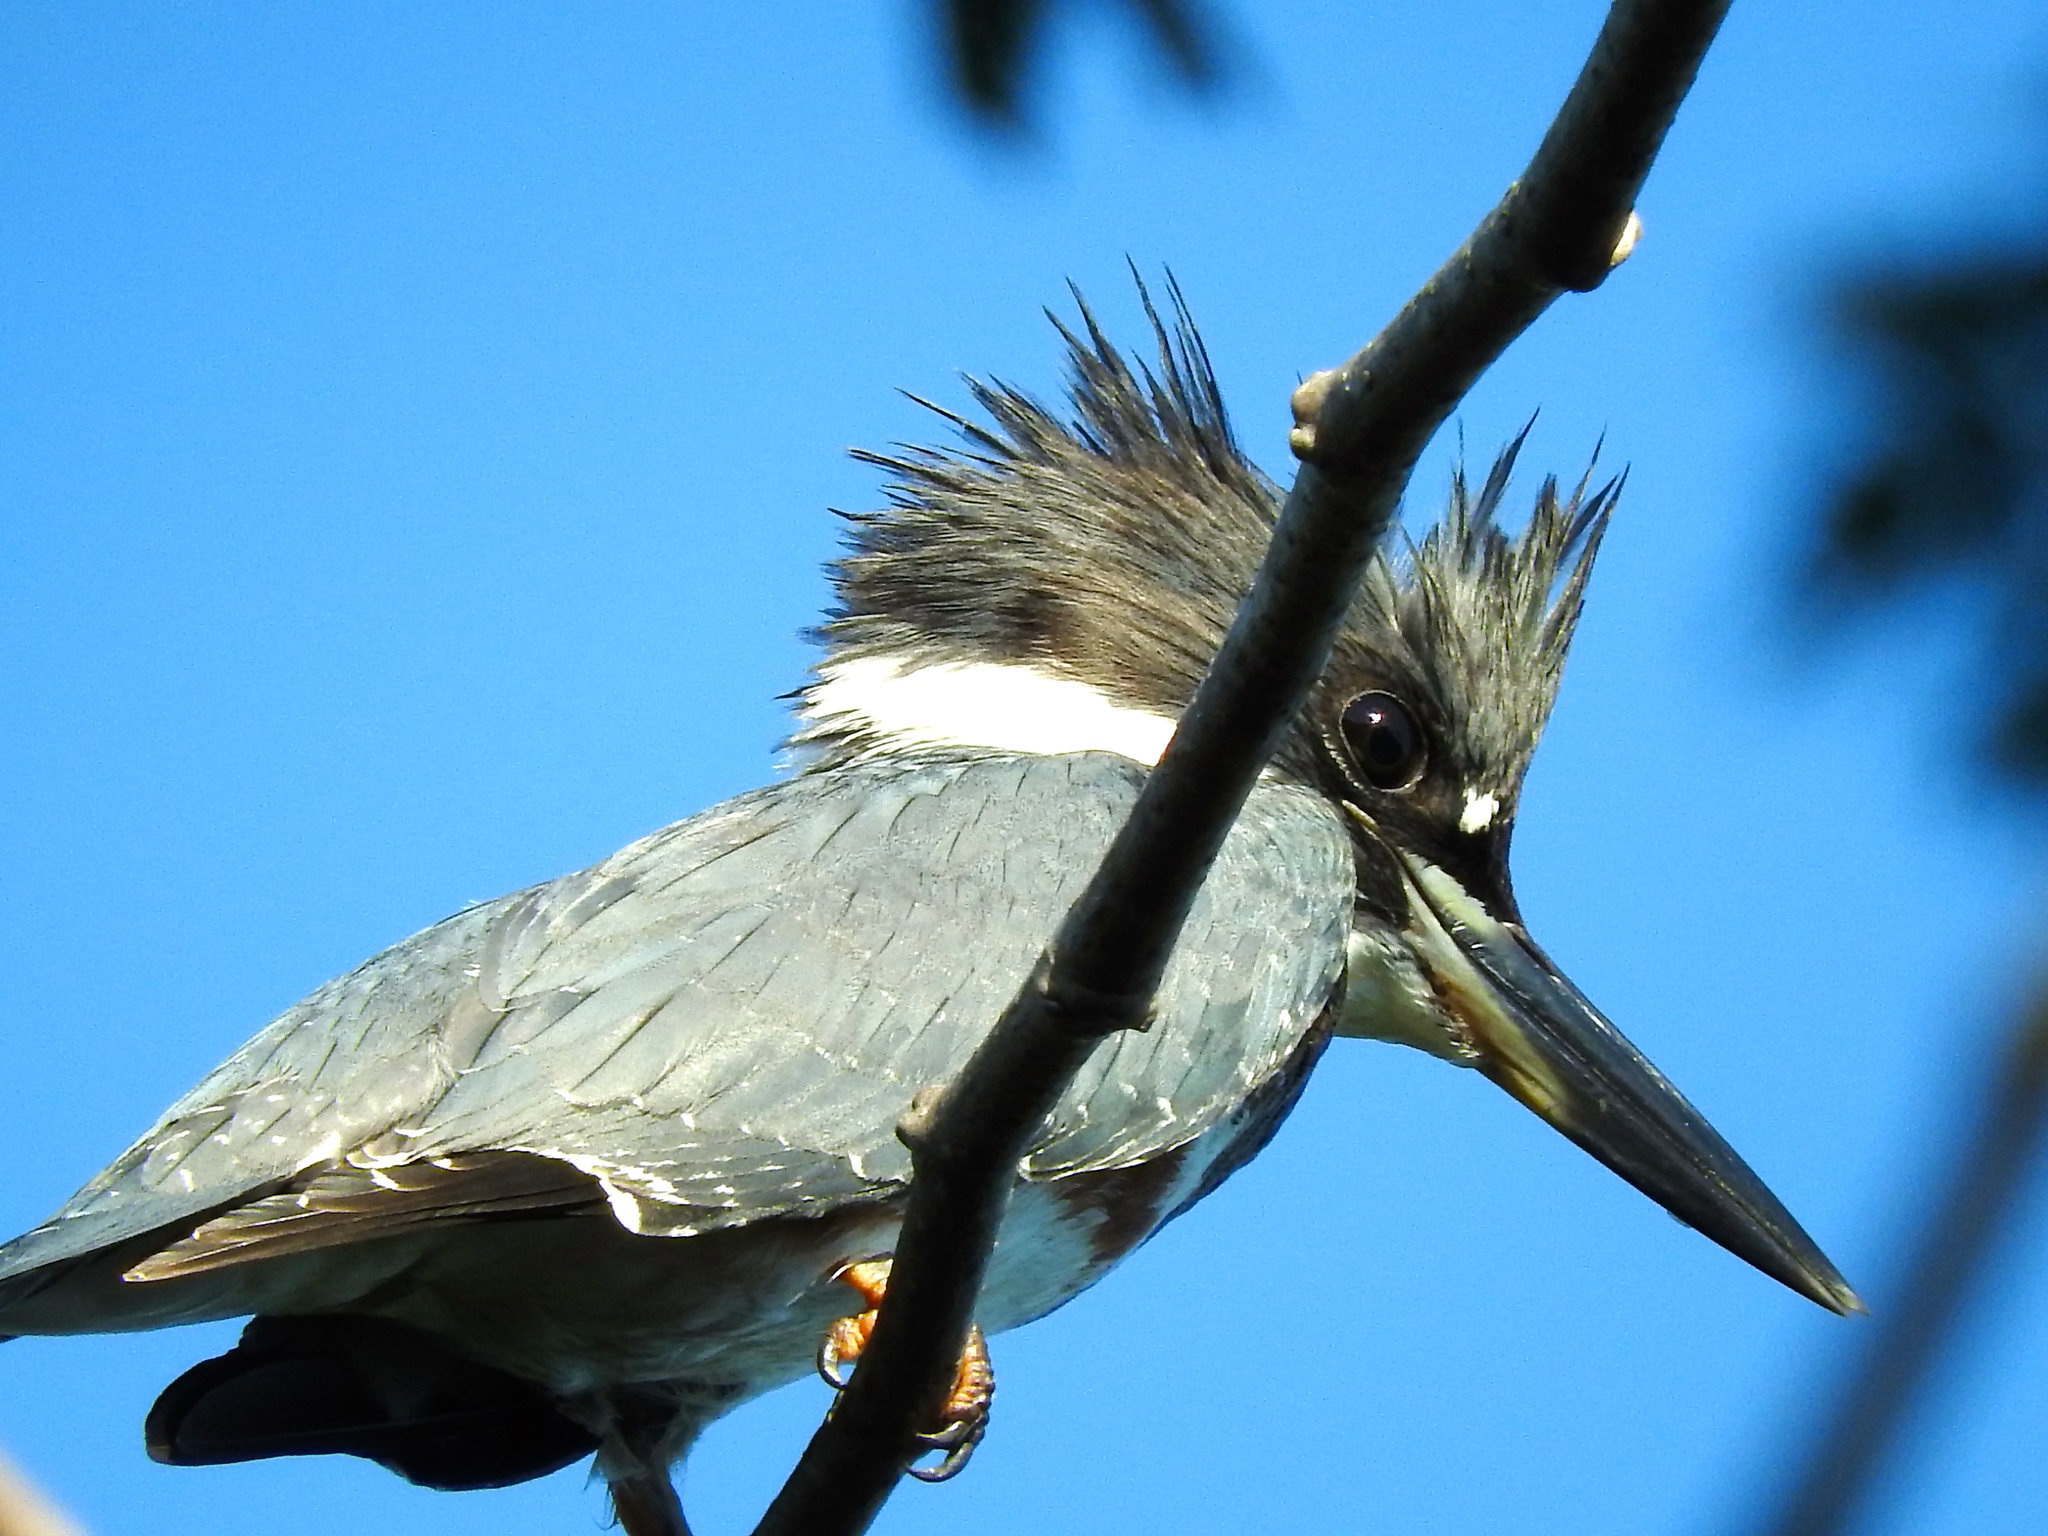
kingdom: Animalia
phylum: Chordata
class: Aves
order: Coraciiformes
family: Alcedinidae
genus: Megaceryle
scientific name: Megaceryle alcyon
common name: Belted kingfisher
